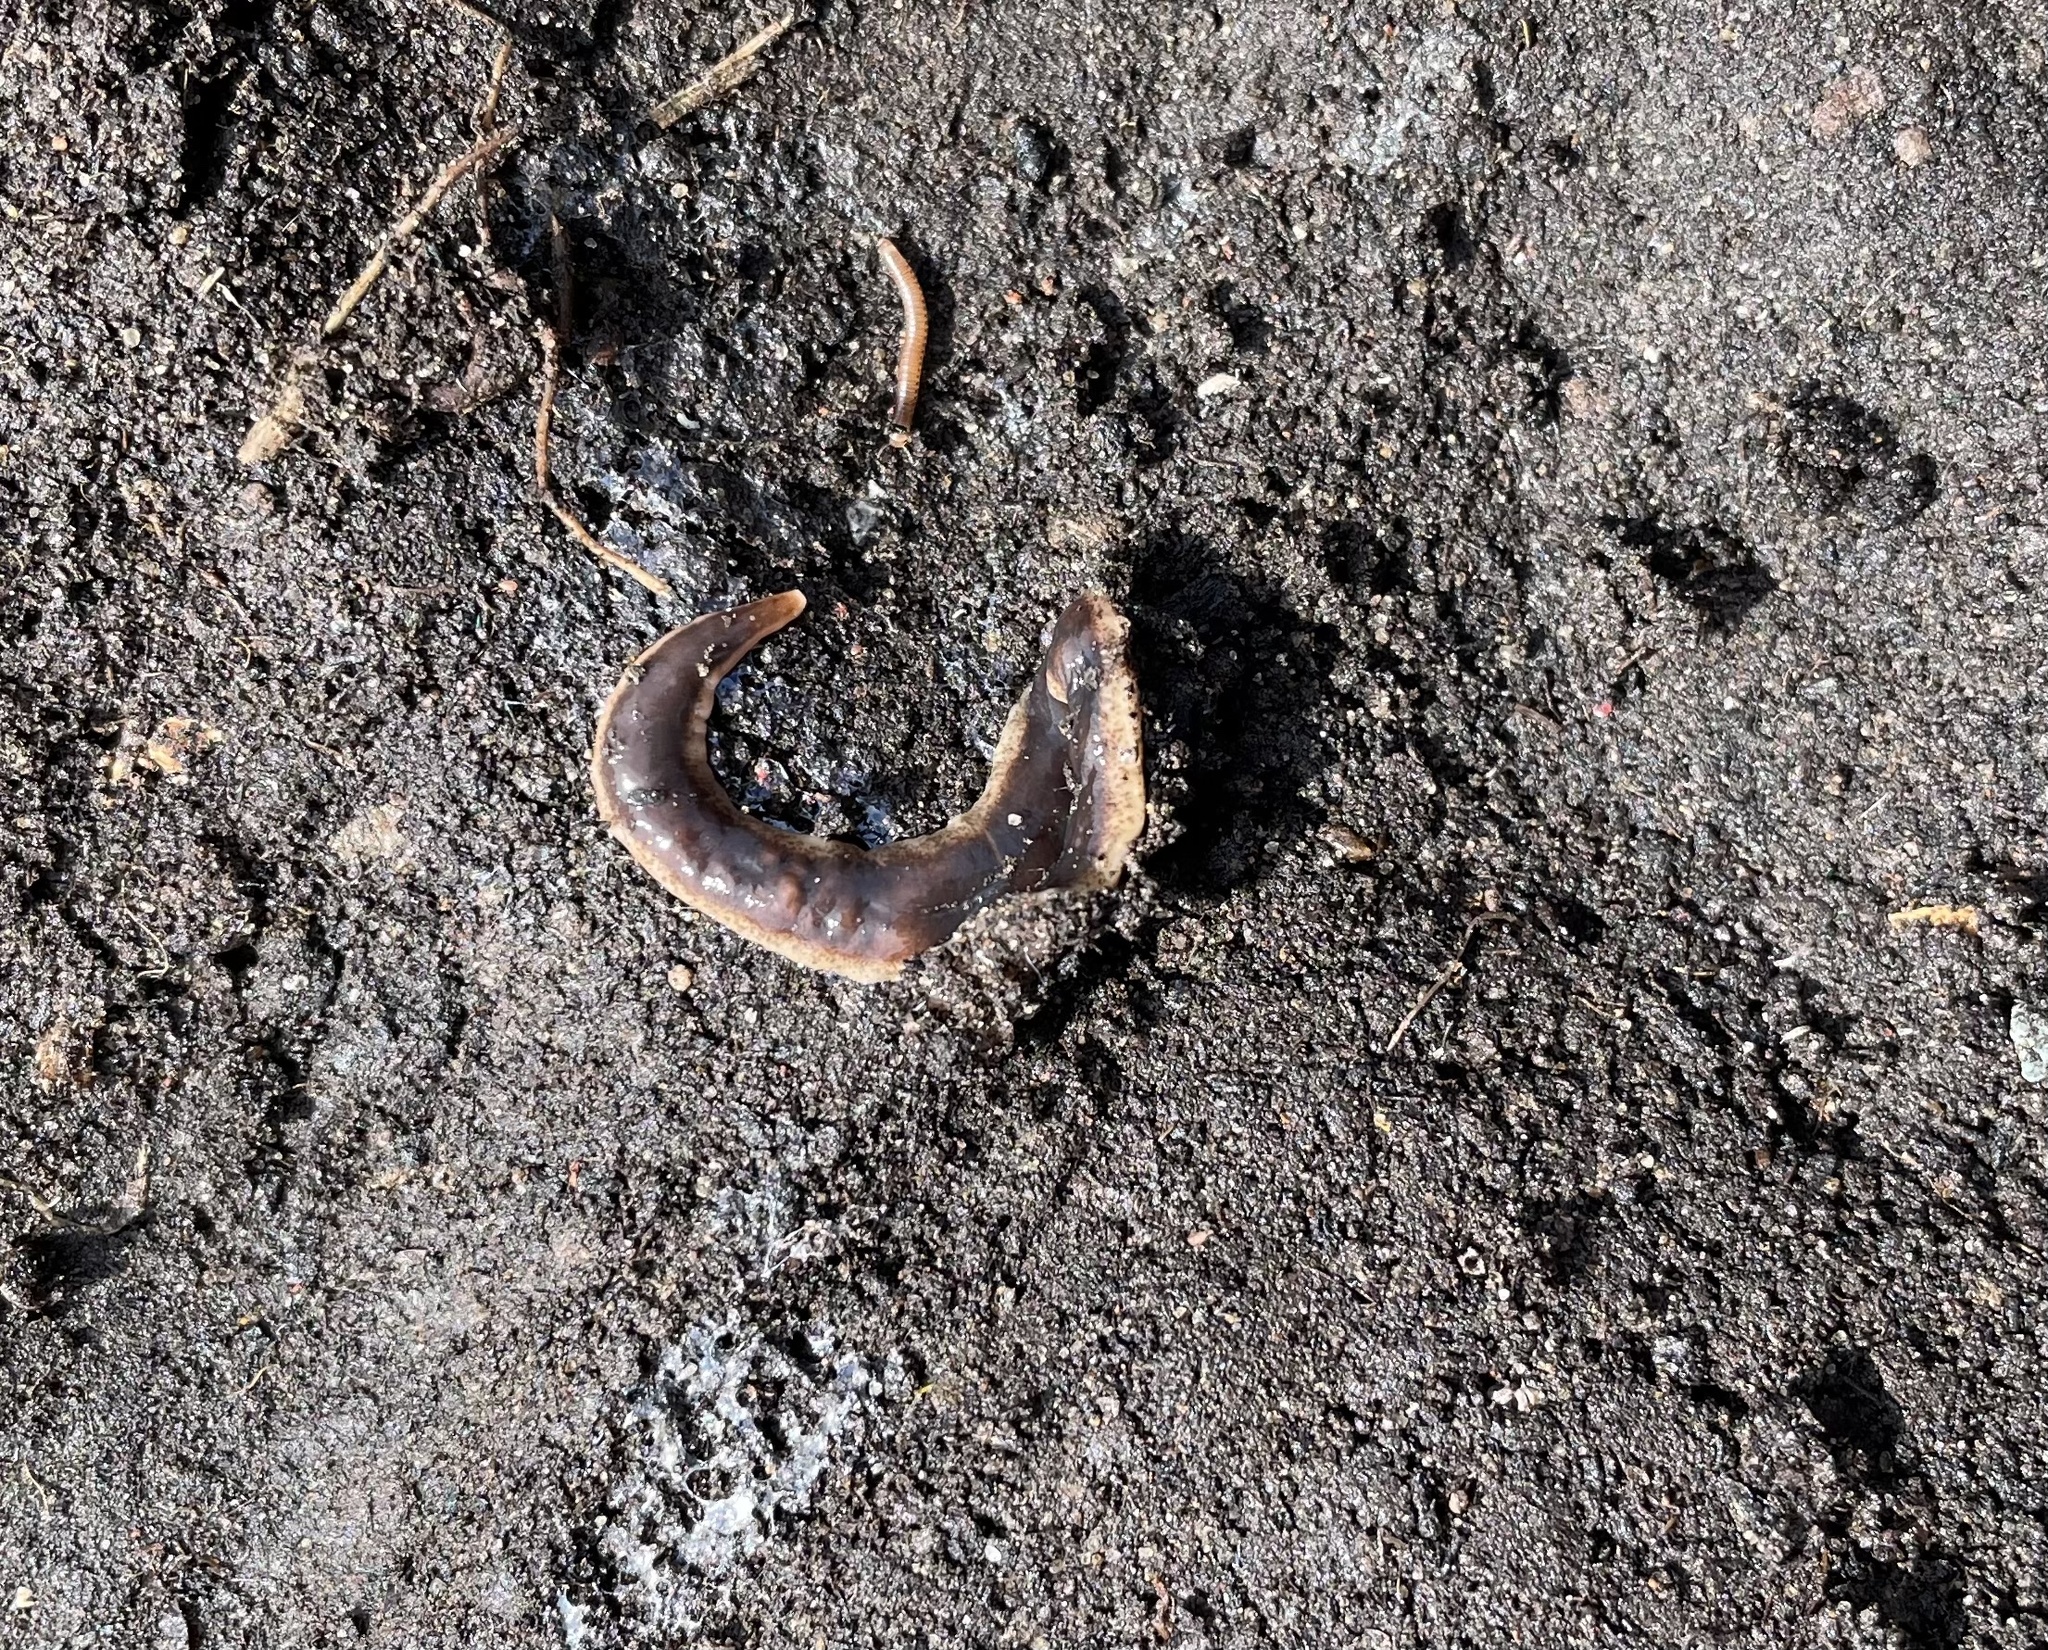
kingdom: Animalia
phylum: Platyhelminthes
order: Tricladida
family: Geoplanidae
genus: Arthurdendyus
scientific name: Arthurdendyus triangulatus
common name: New zealand flatworm
